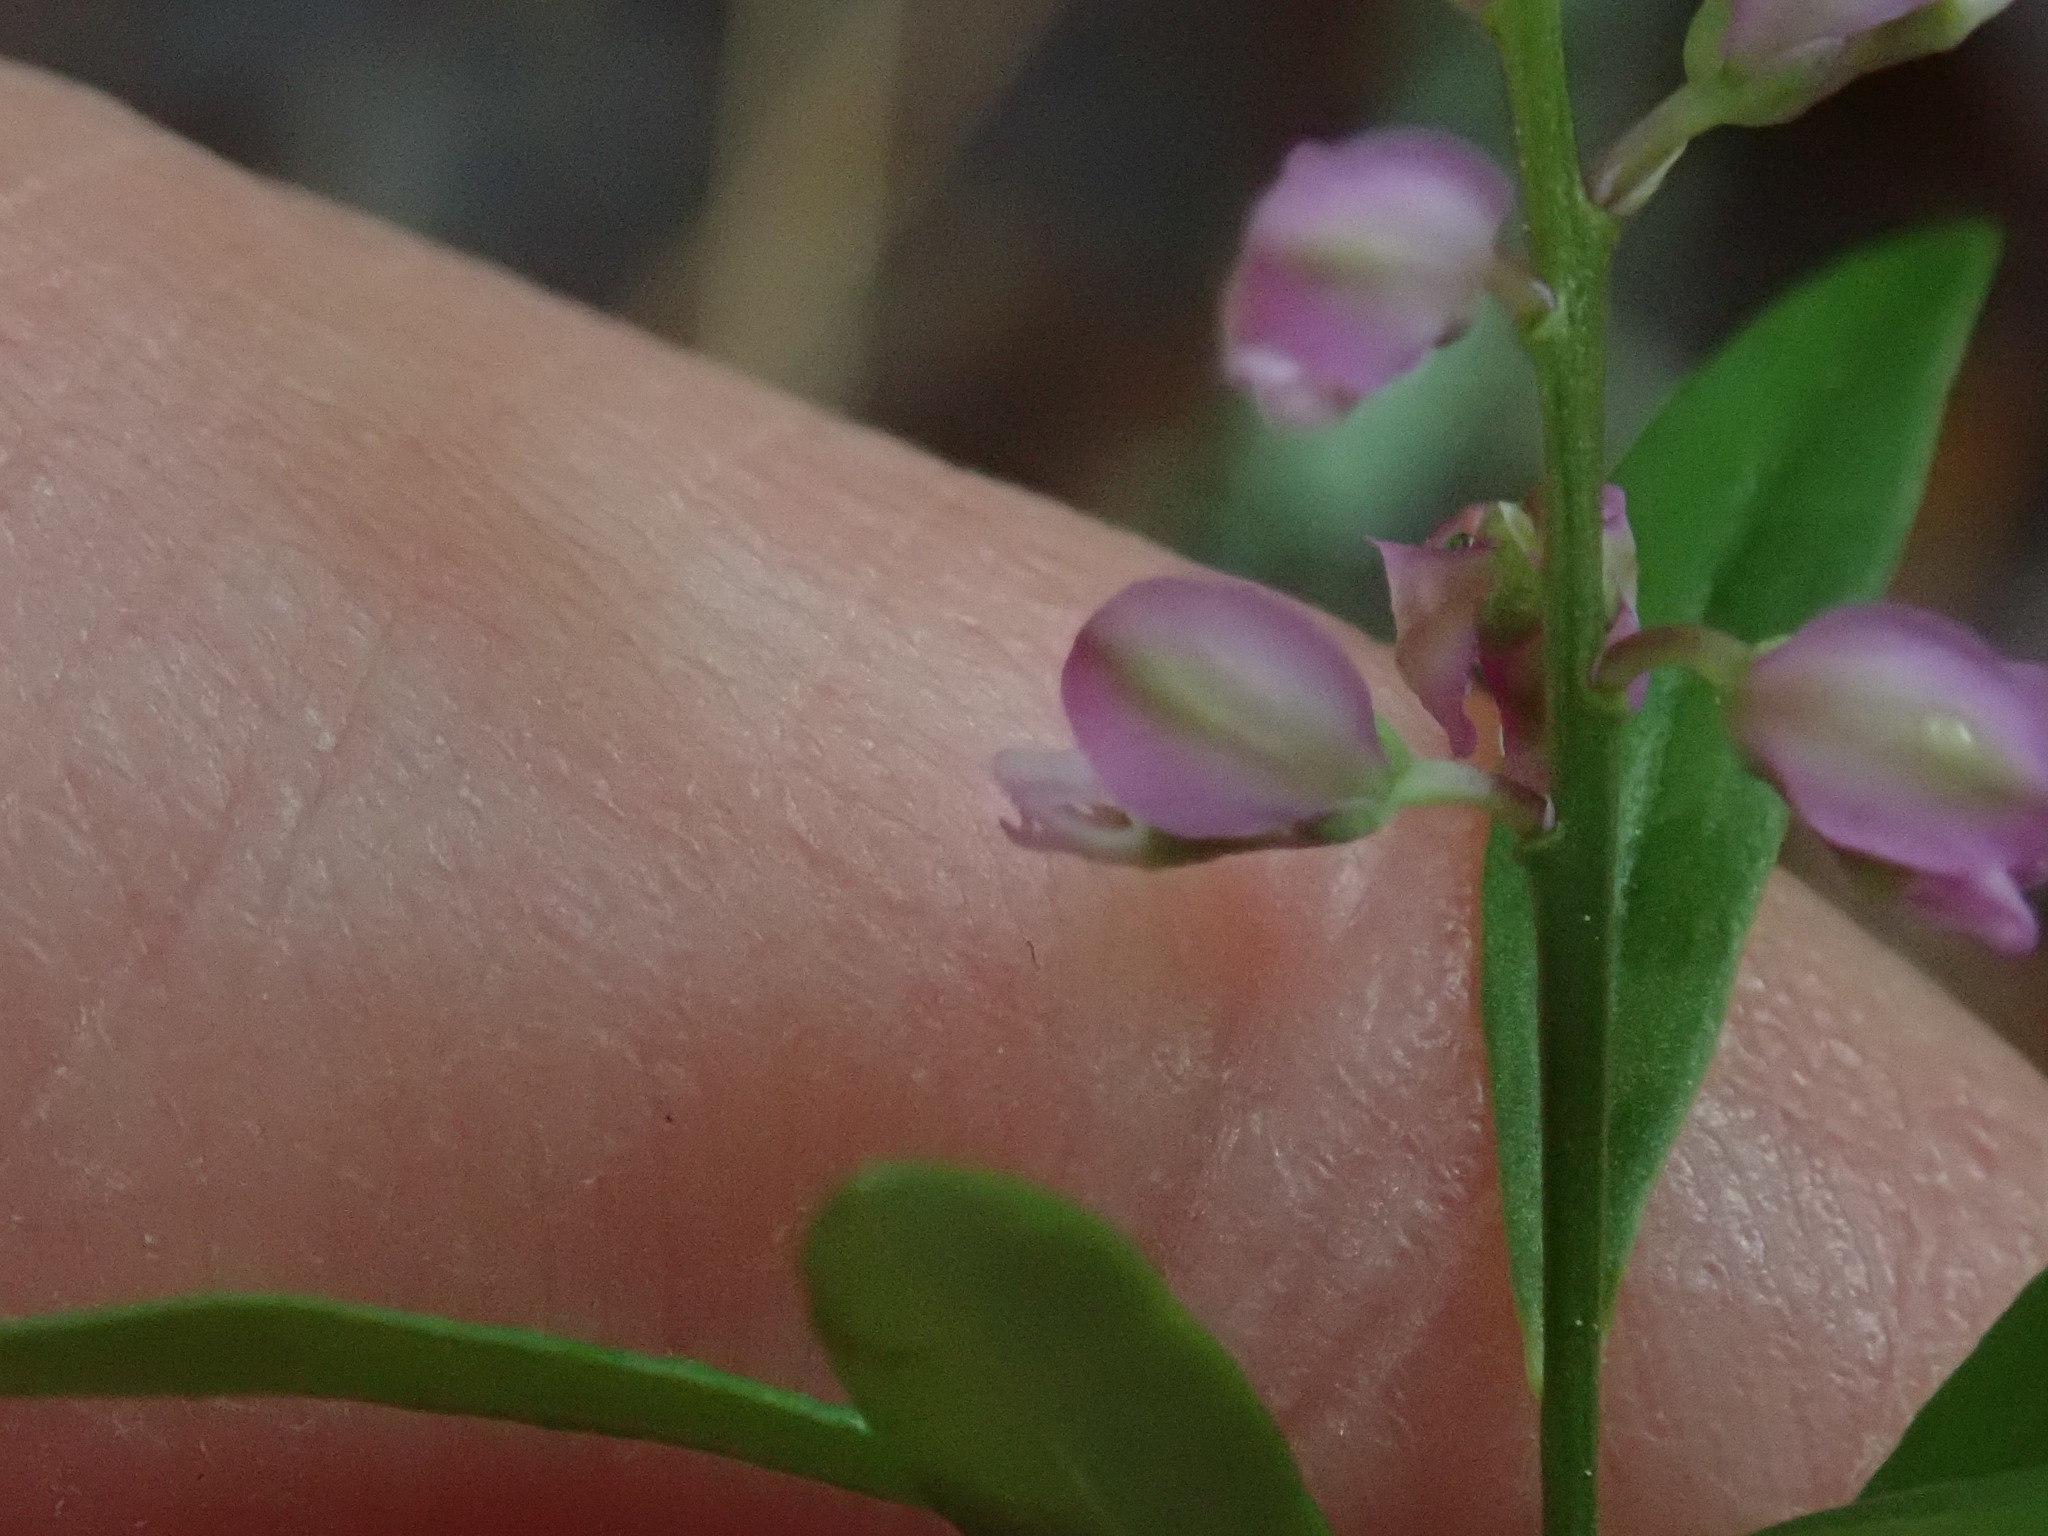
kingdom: Plantae
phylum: Tracheophyta
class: Magnoliopsida
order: Fabales
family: Polygalaceae
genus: Polygala
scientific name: Polygala polygama
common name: Bitter milkwort
